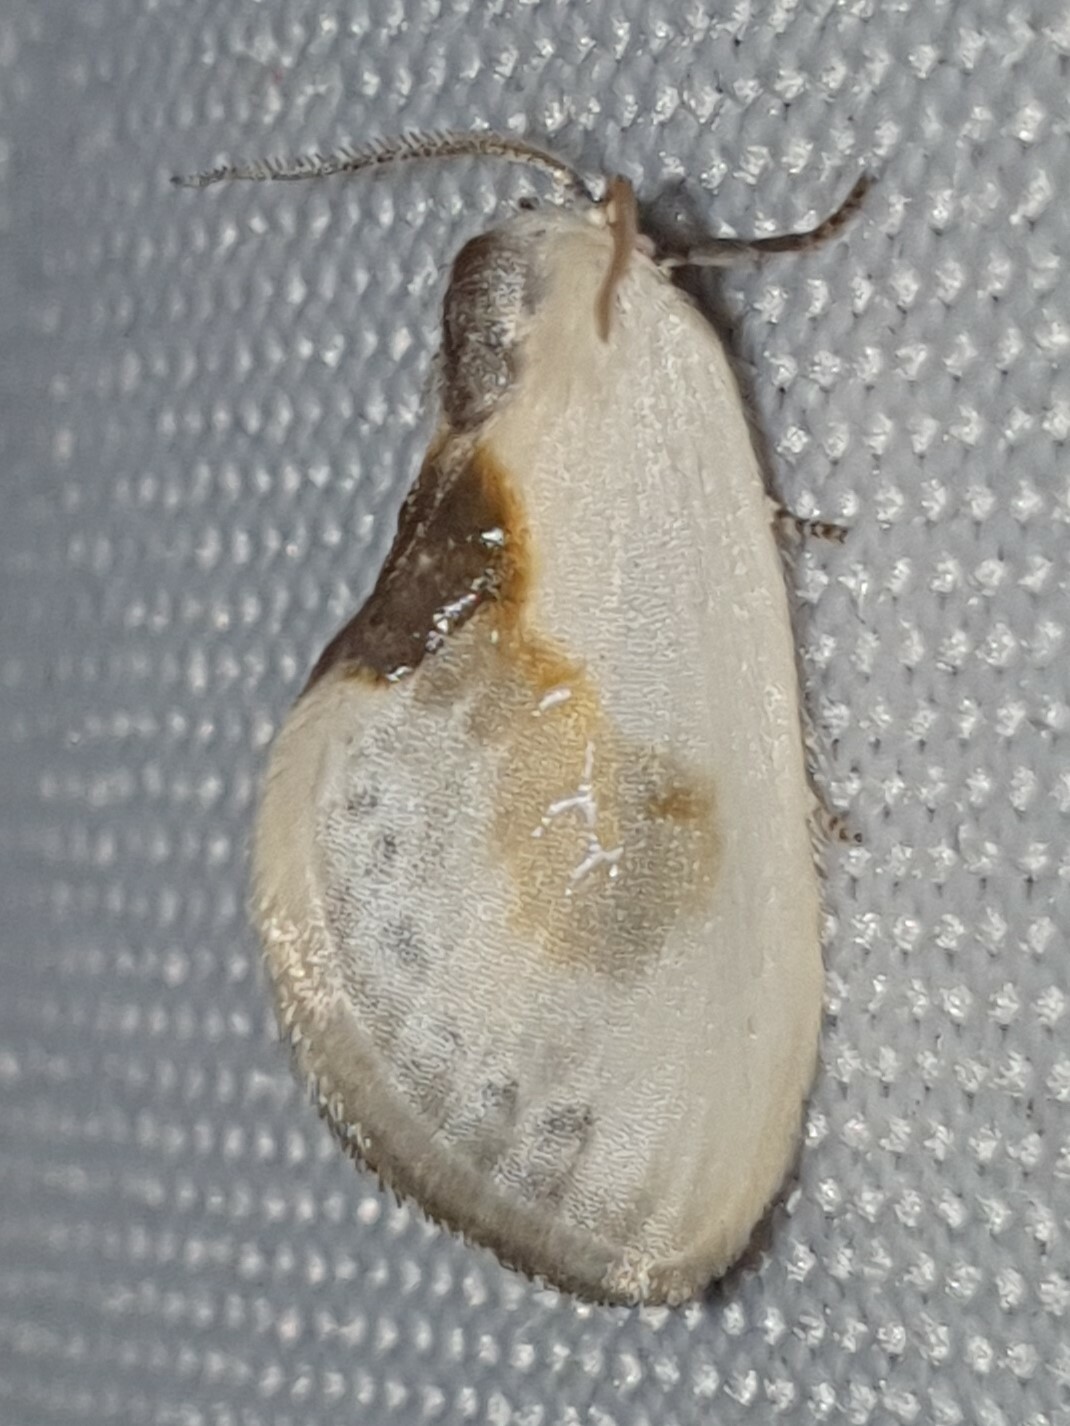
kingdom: Animalia
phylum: Arthropoda
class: Insecta
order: Lepidoptera
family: Drepanidae
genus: Cilix
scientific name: Cilix glaucata
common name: Chinese character
